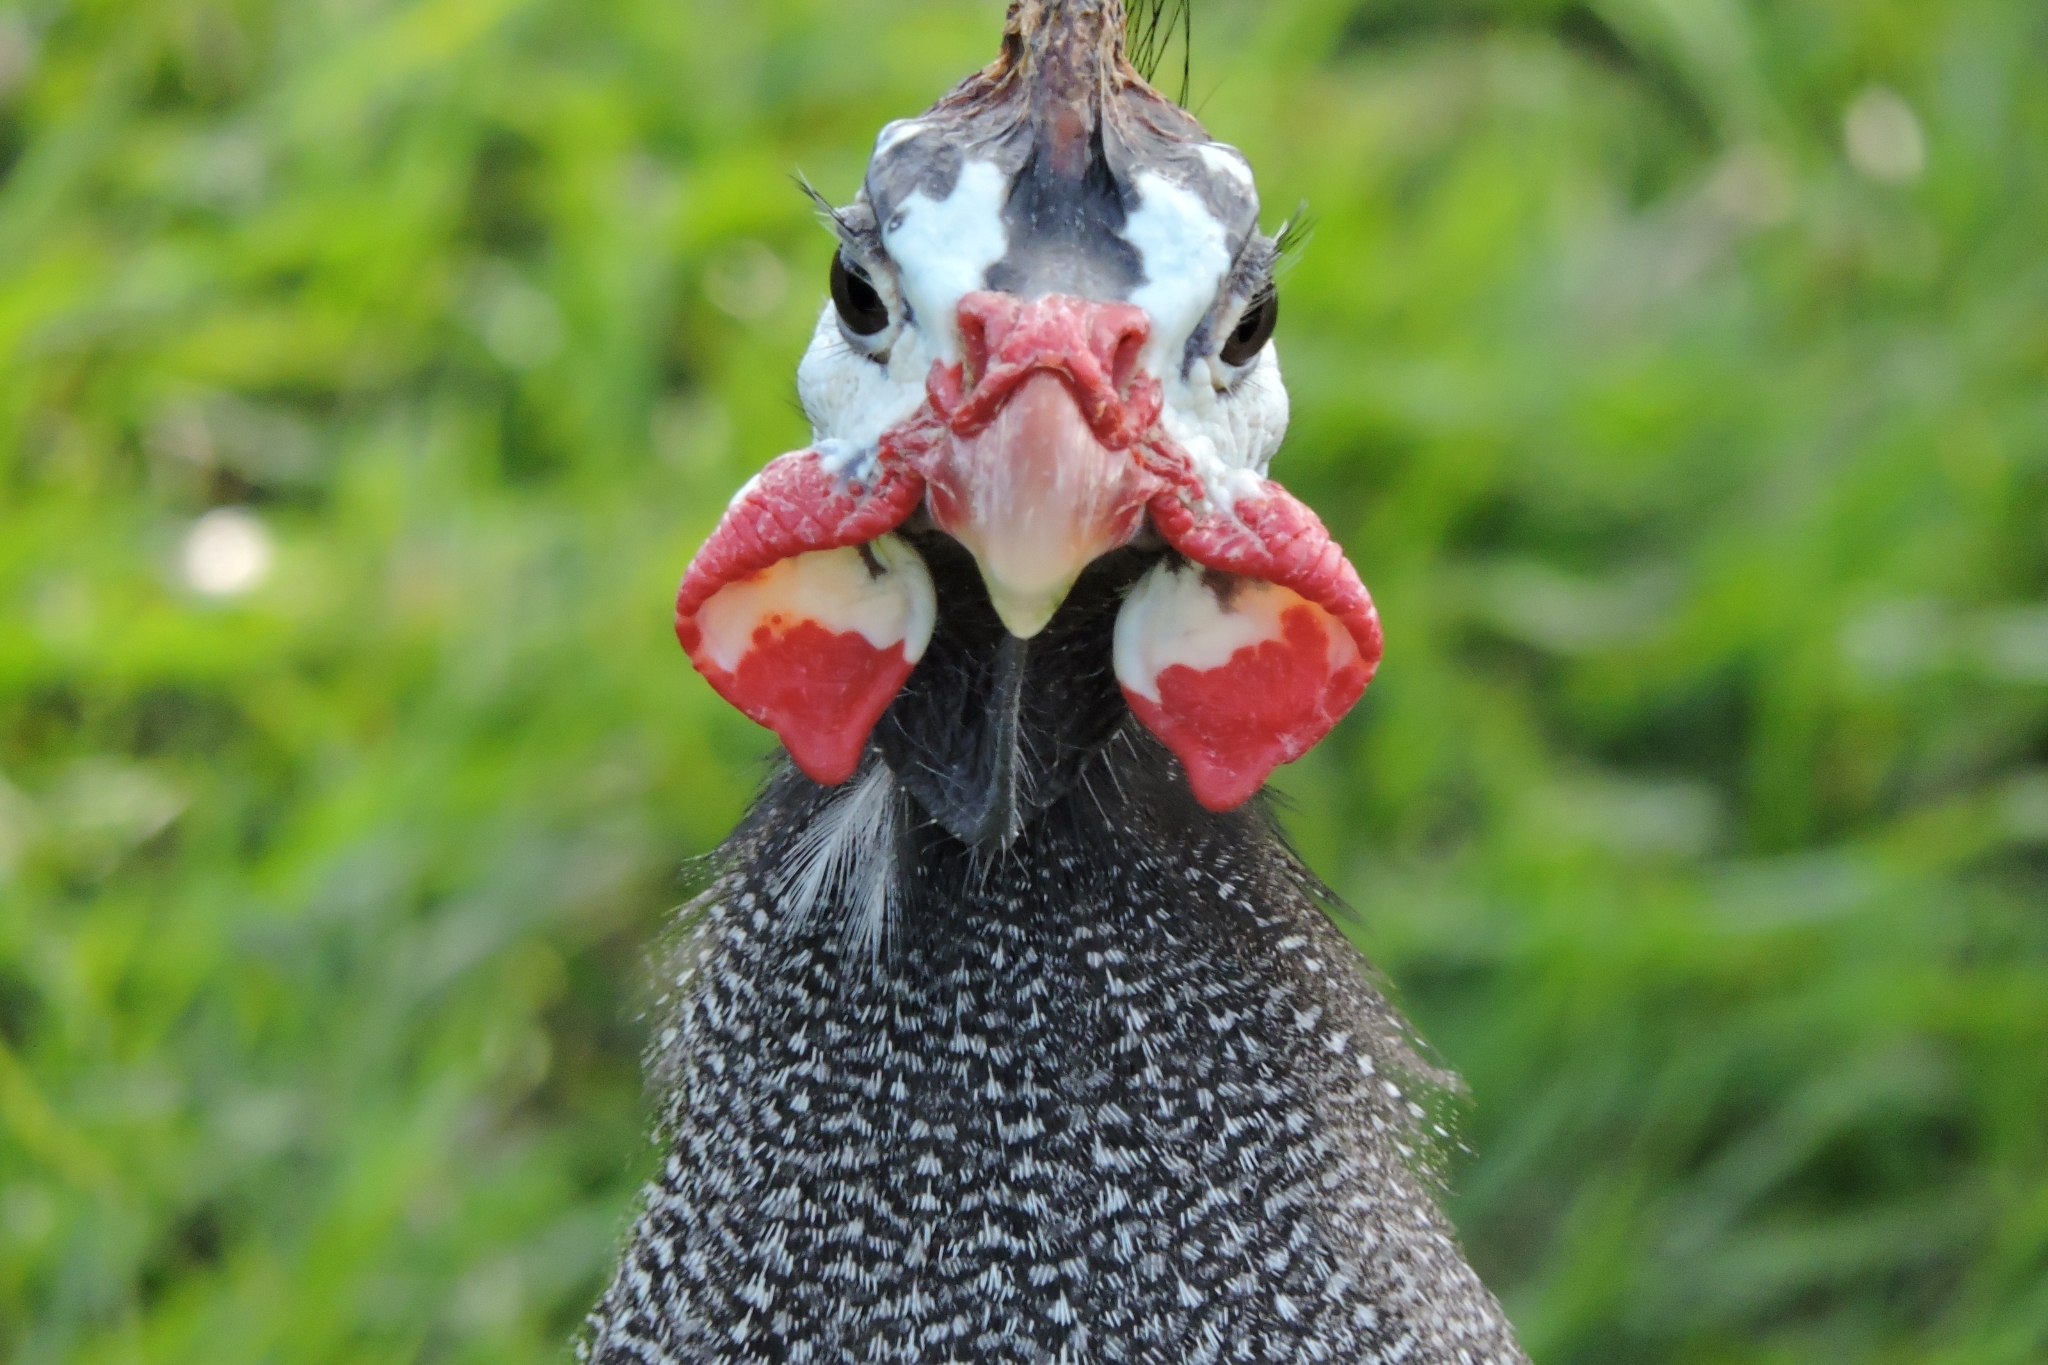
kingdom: Animalia
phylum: Chordata
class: Aves
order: Galliformes
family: Numididae
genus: Numida
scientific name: Numida meleagris
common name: Helmeted guineafowl
